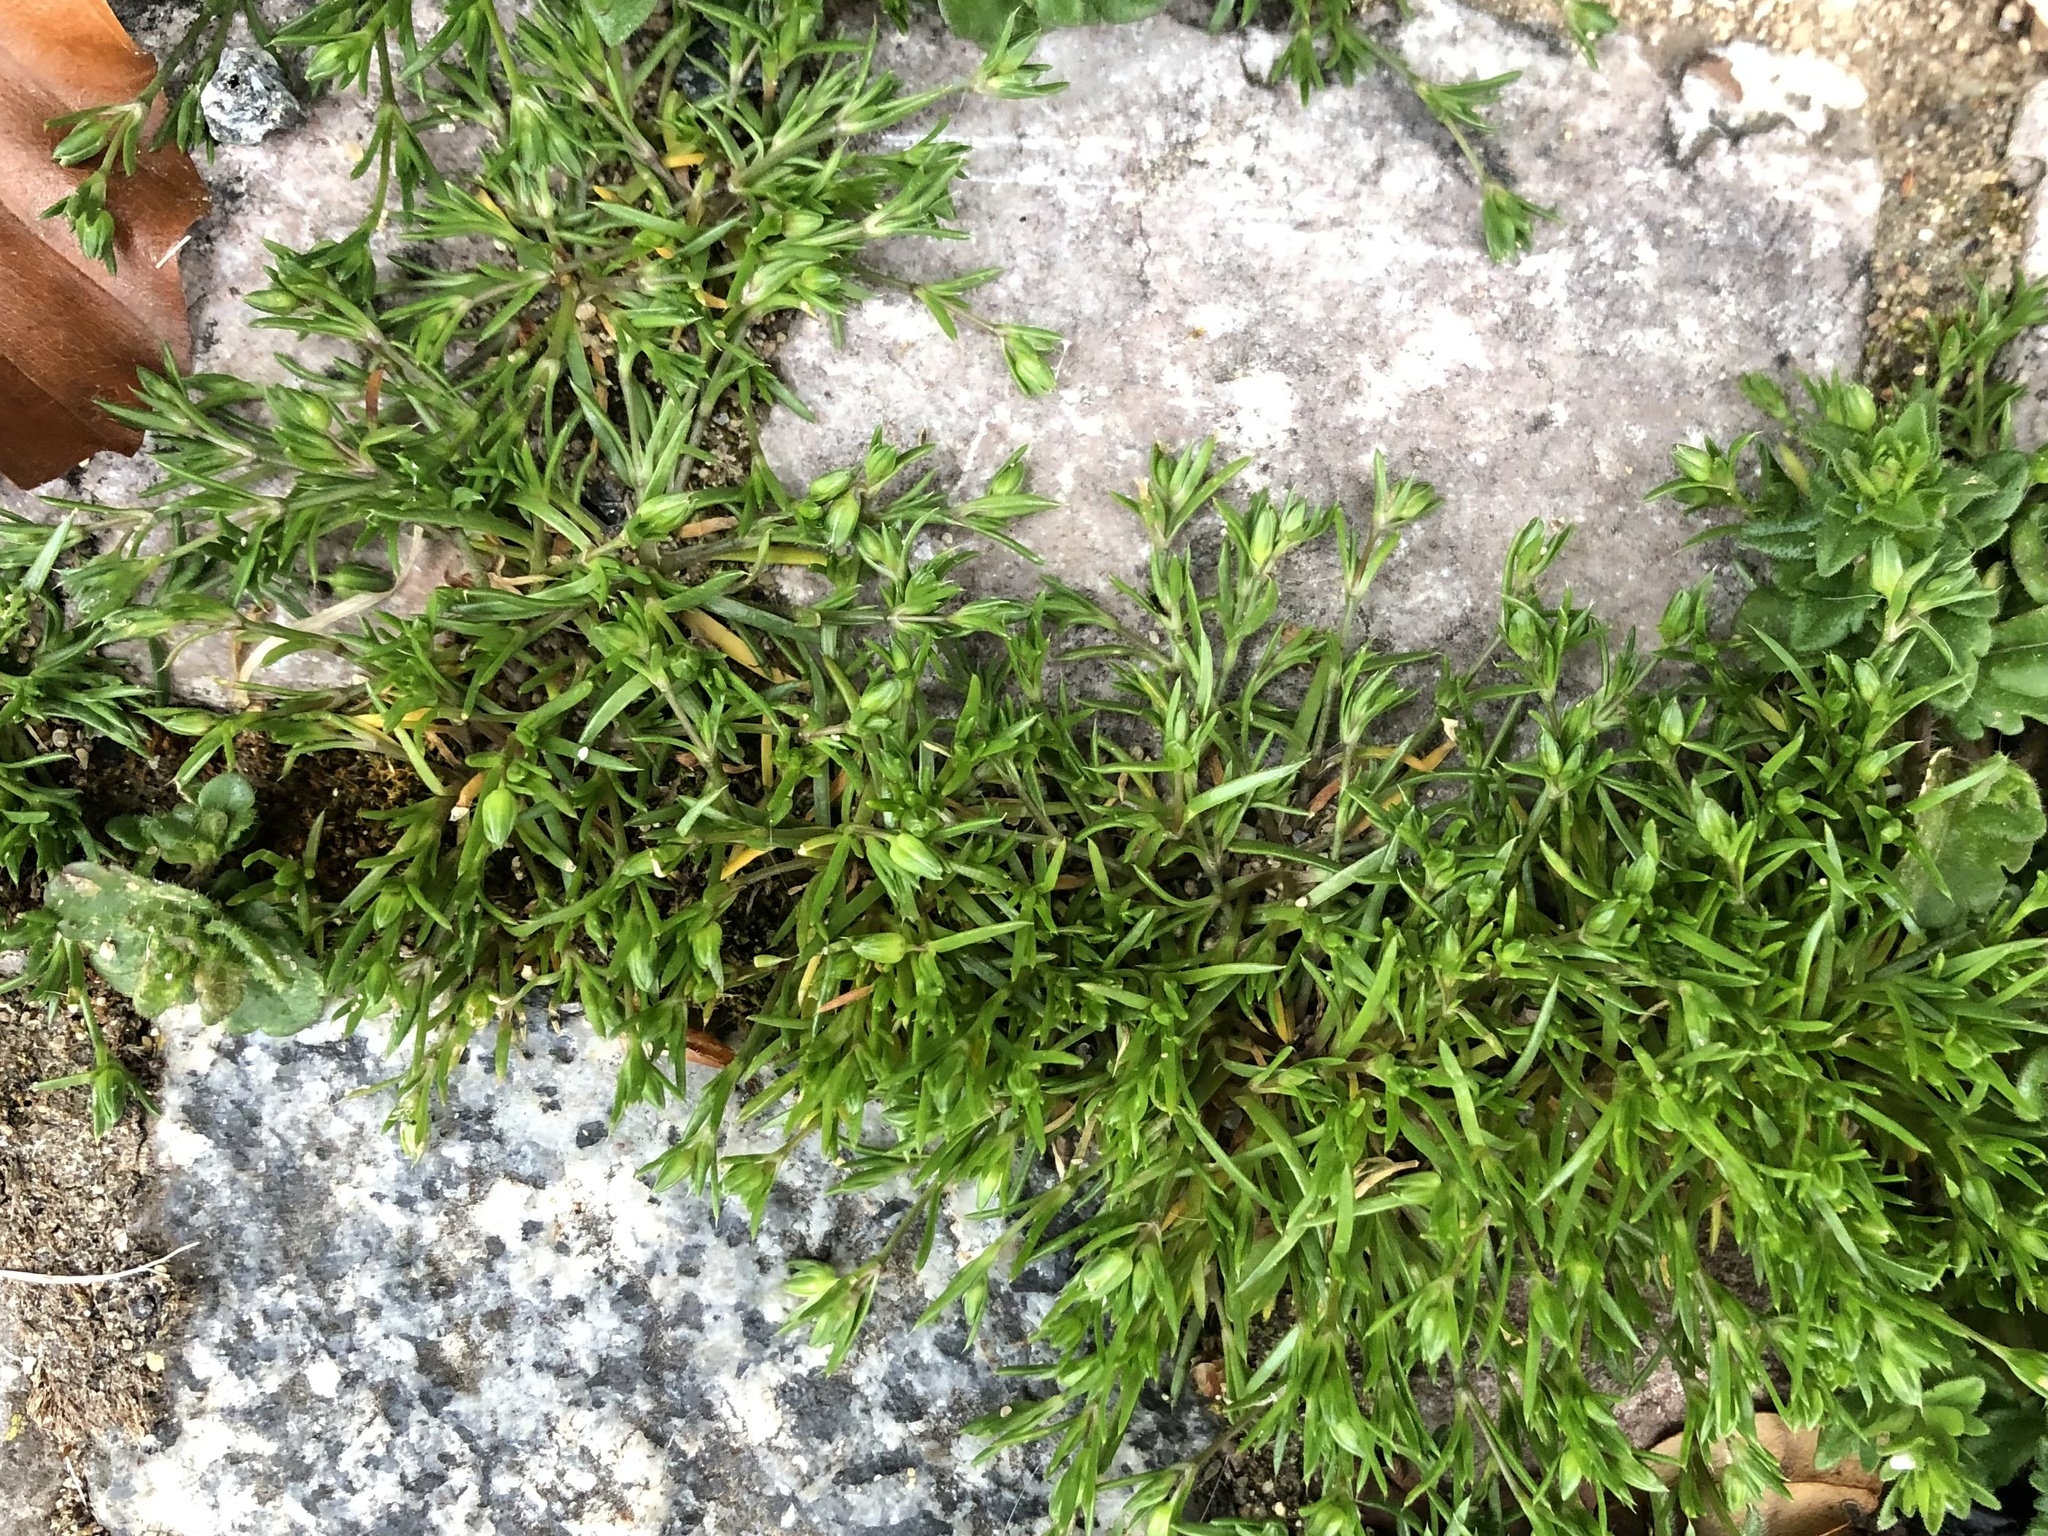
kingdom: Plantae
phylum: Tracheophyta
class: Magnoliopsida
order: Caryophyllales
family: Caryophyllaceae
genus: Sagina
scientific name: Sagina procumbens
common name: Procumbent pearlwort
